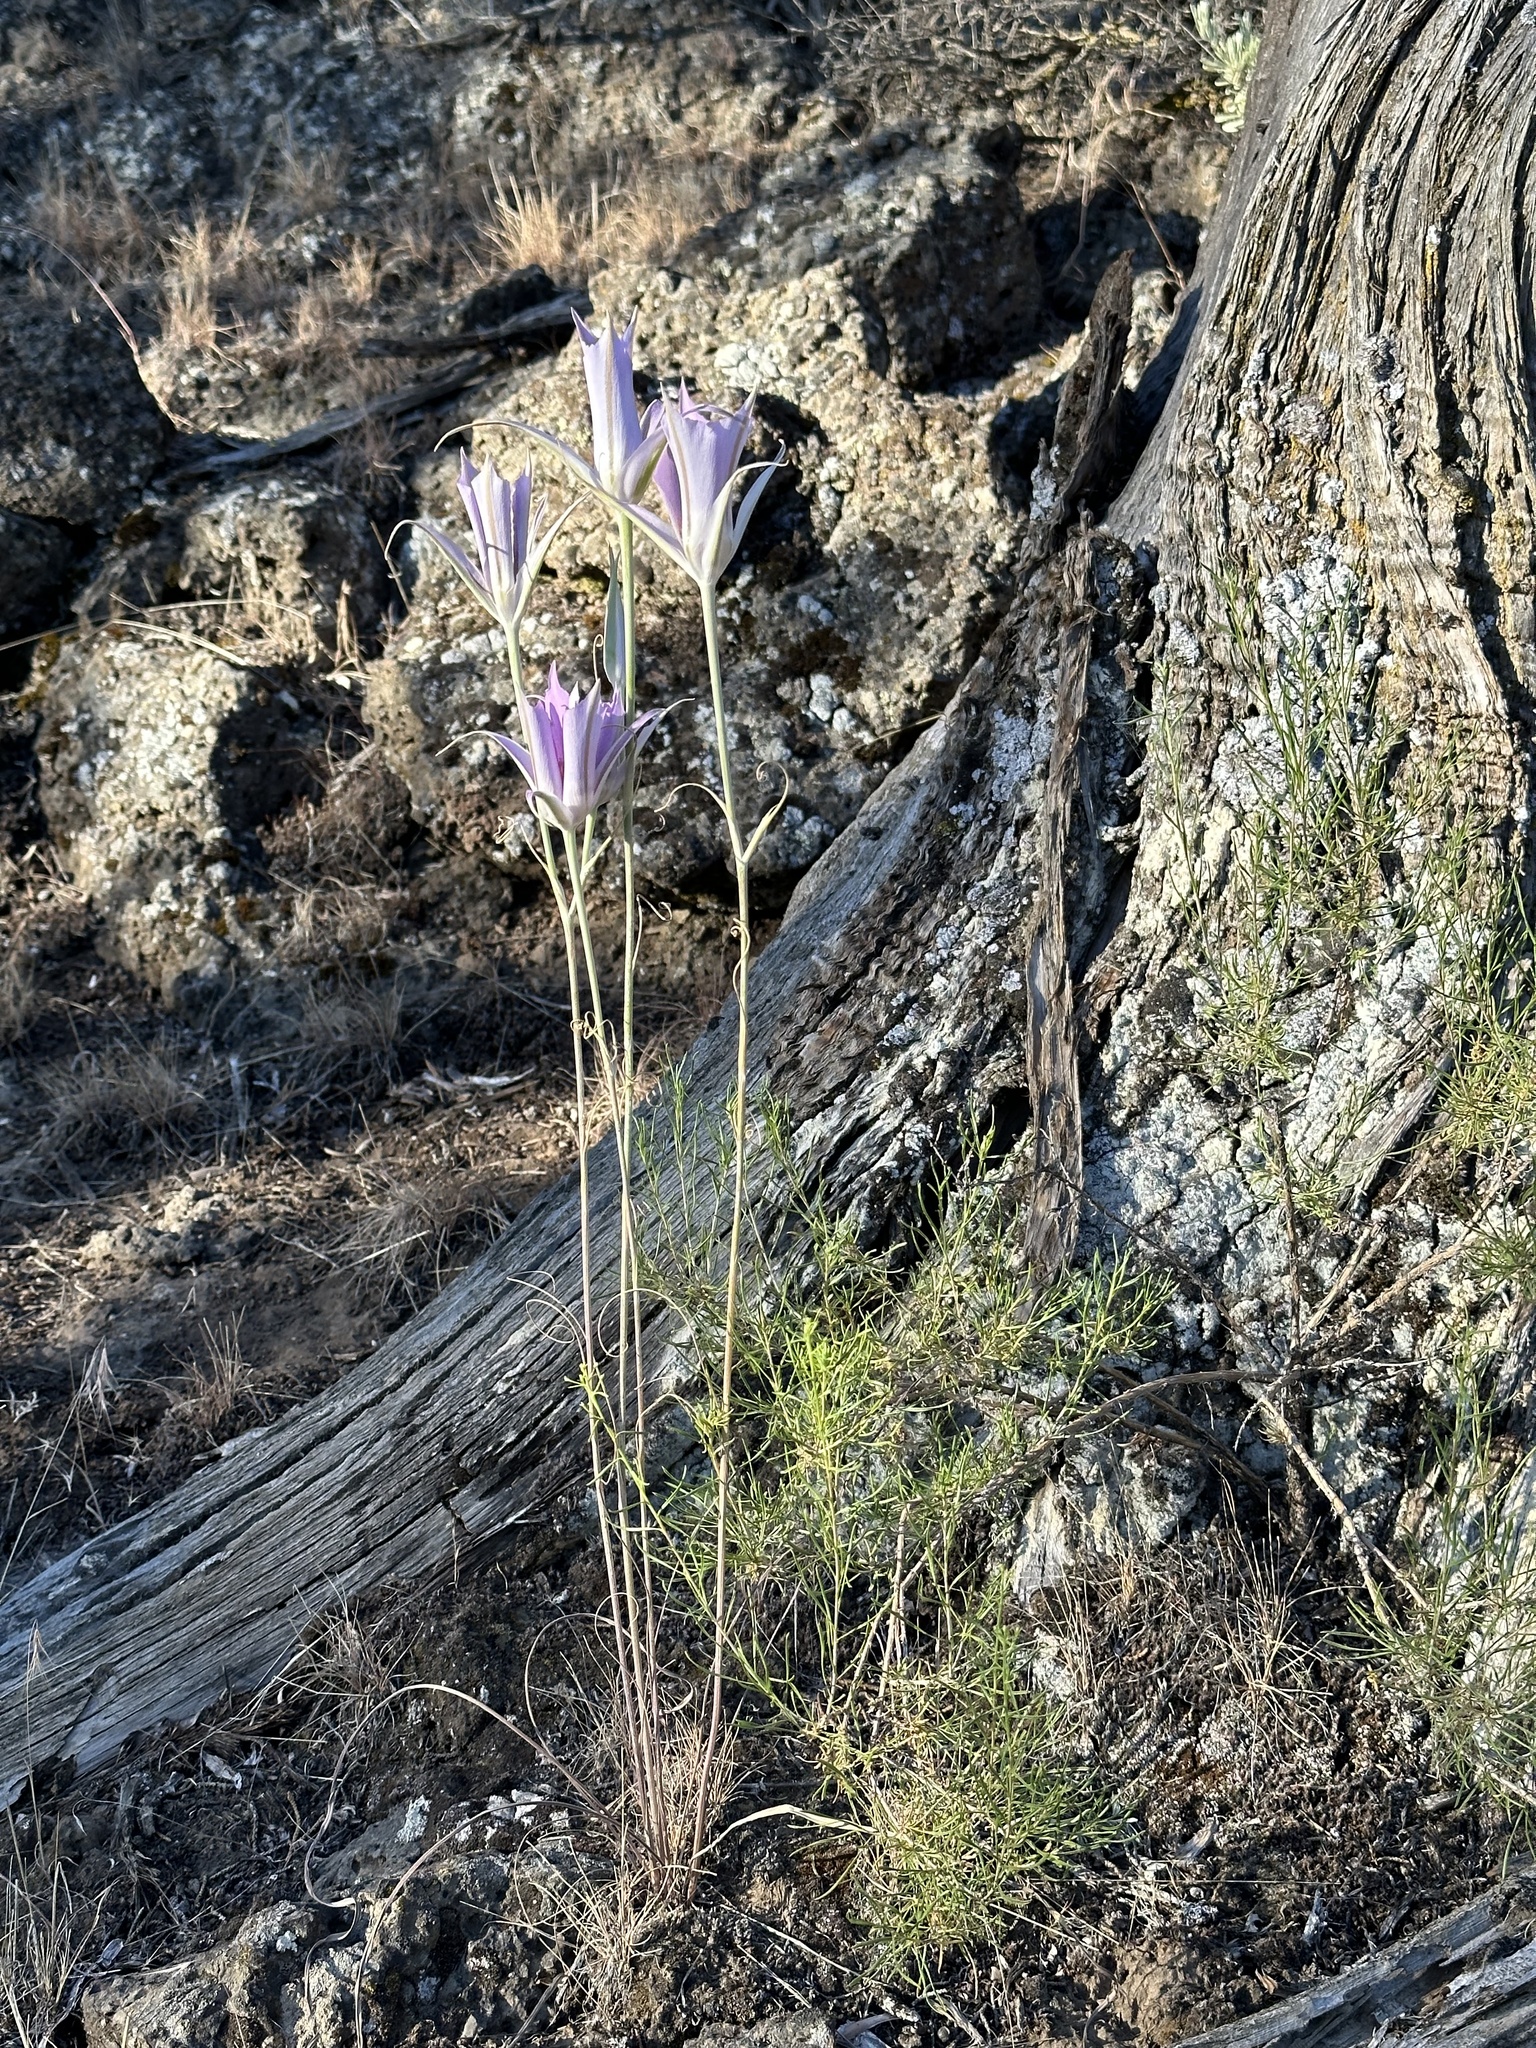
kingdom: Plantae
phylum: Tracheophyta
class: Liliopsida
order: Liliales
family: Liliaceae
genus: Calochortus
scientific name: Calochortus macrocarpus
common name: Green-band mariposa lily
